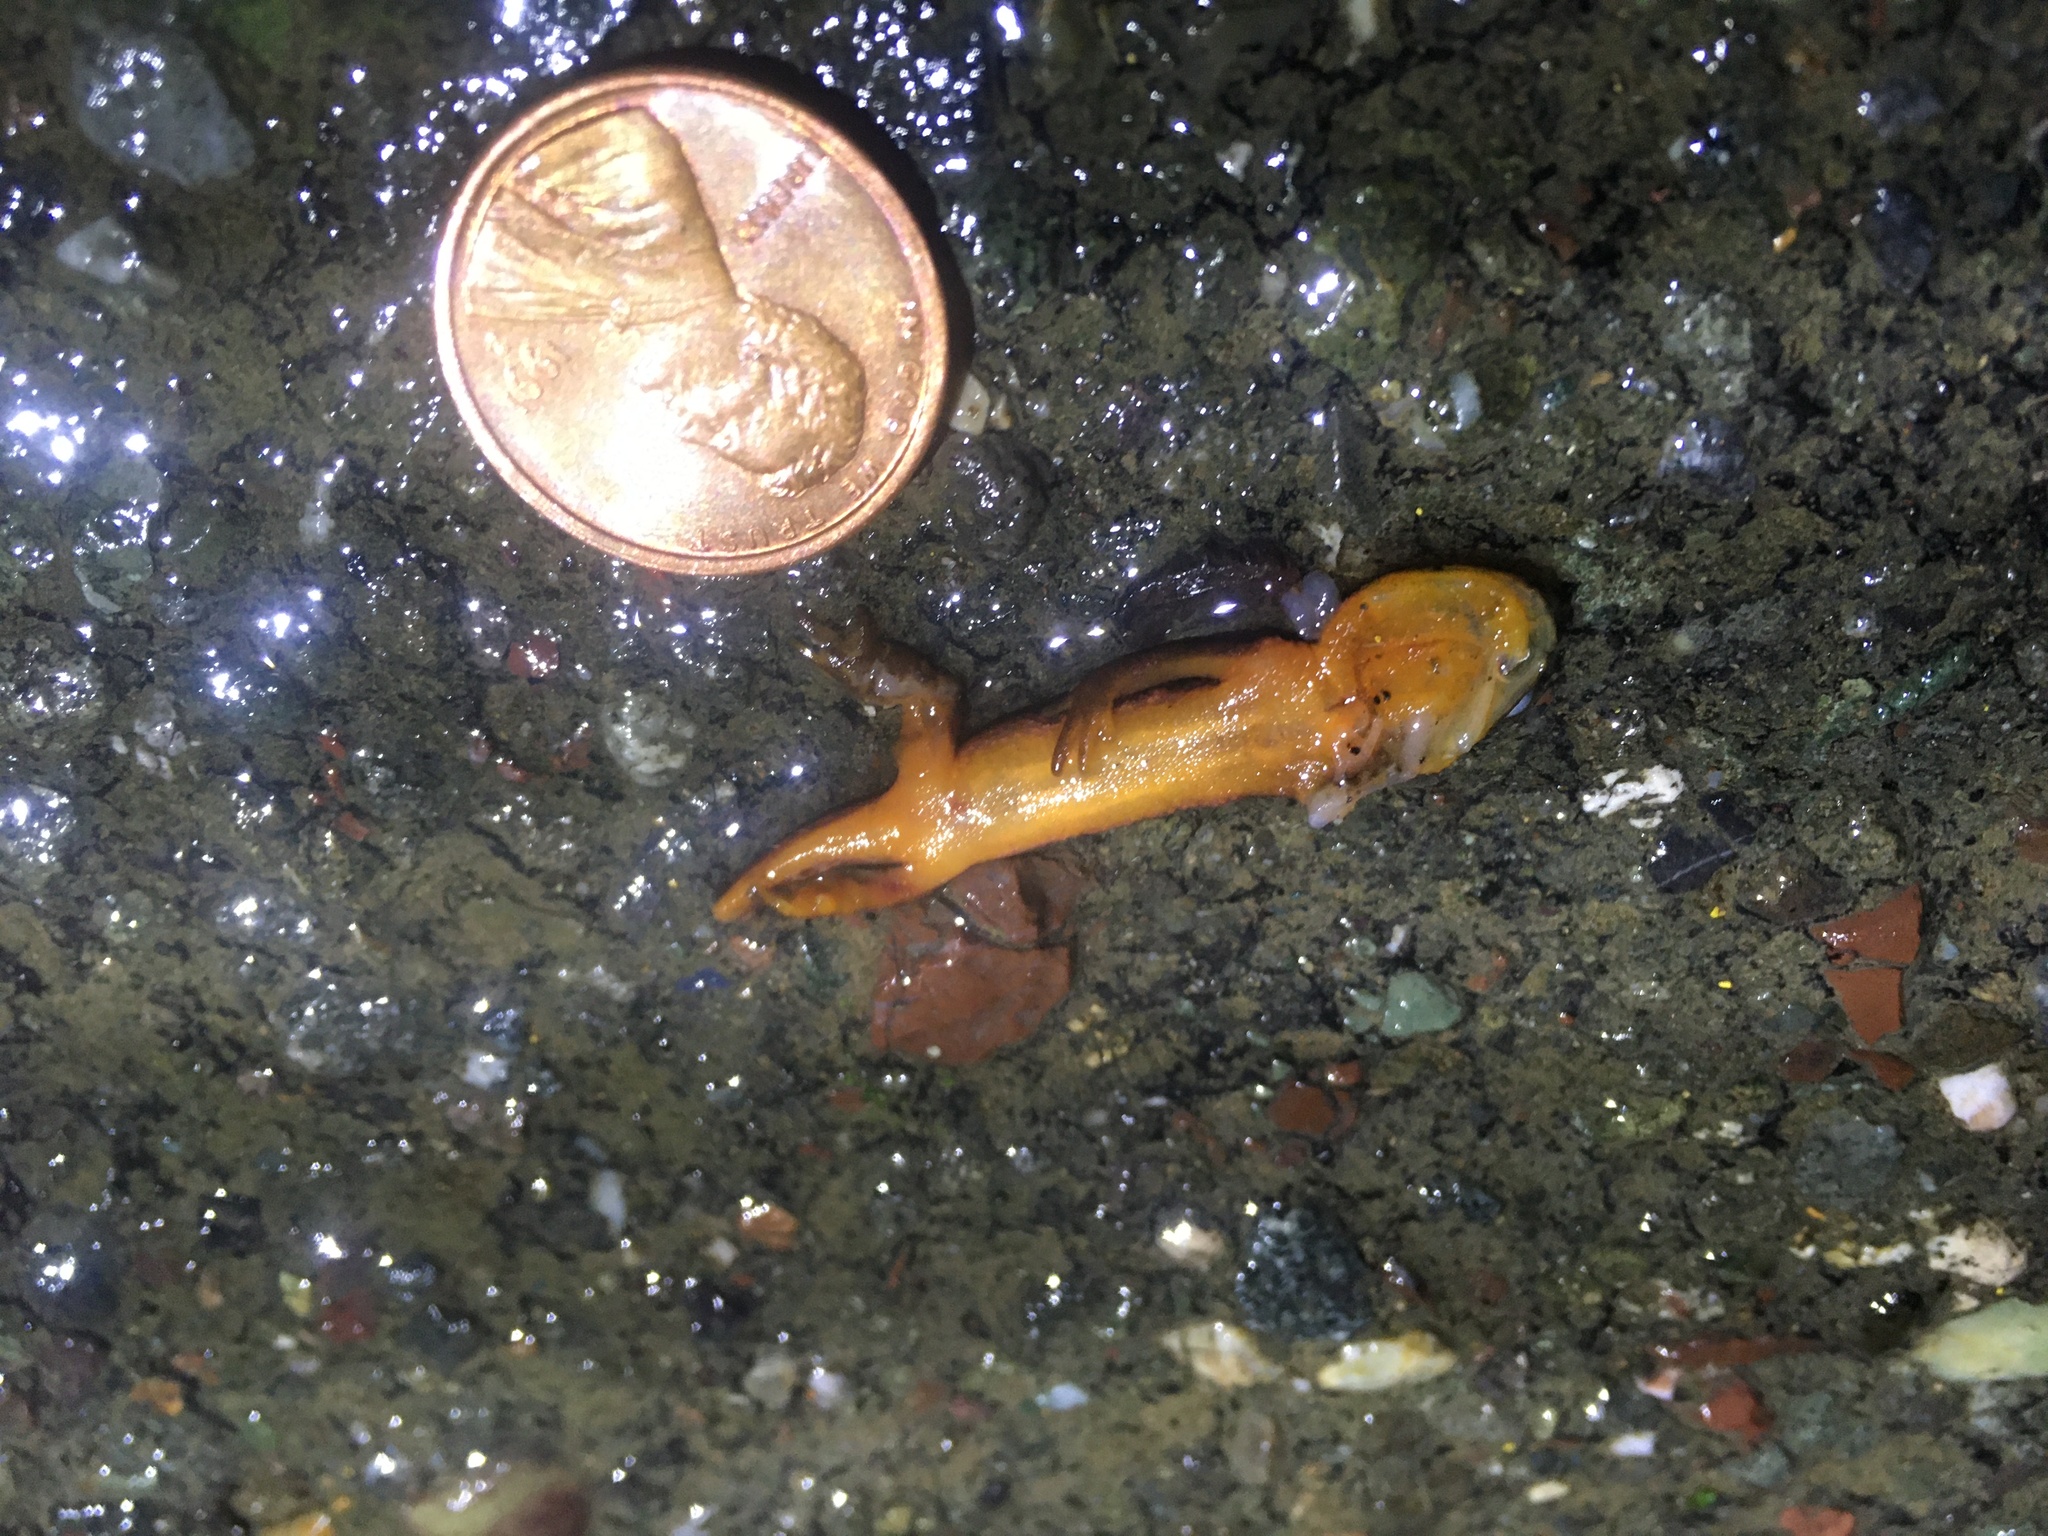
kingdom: Animalia
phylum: Chordata
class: Amphibia
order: Caudata
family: Salamandridae
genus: Taricha
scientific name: Taricha
